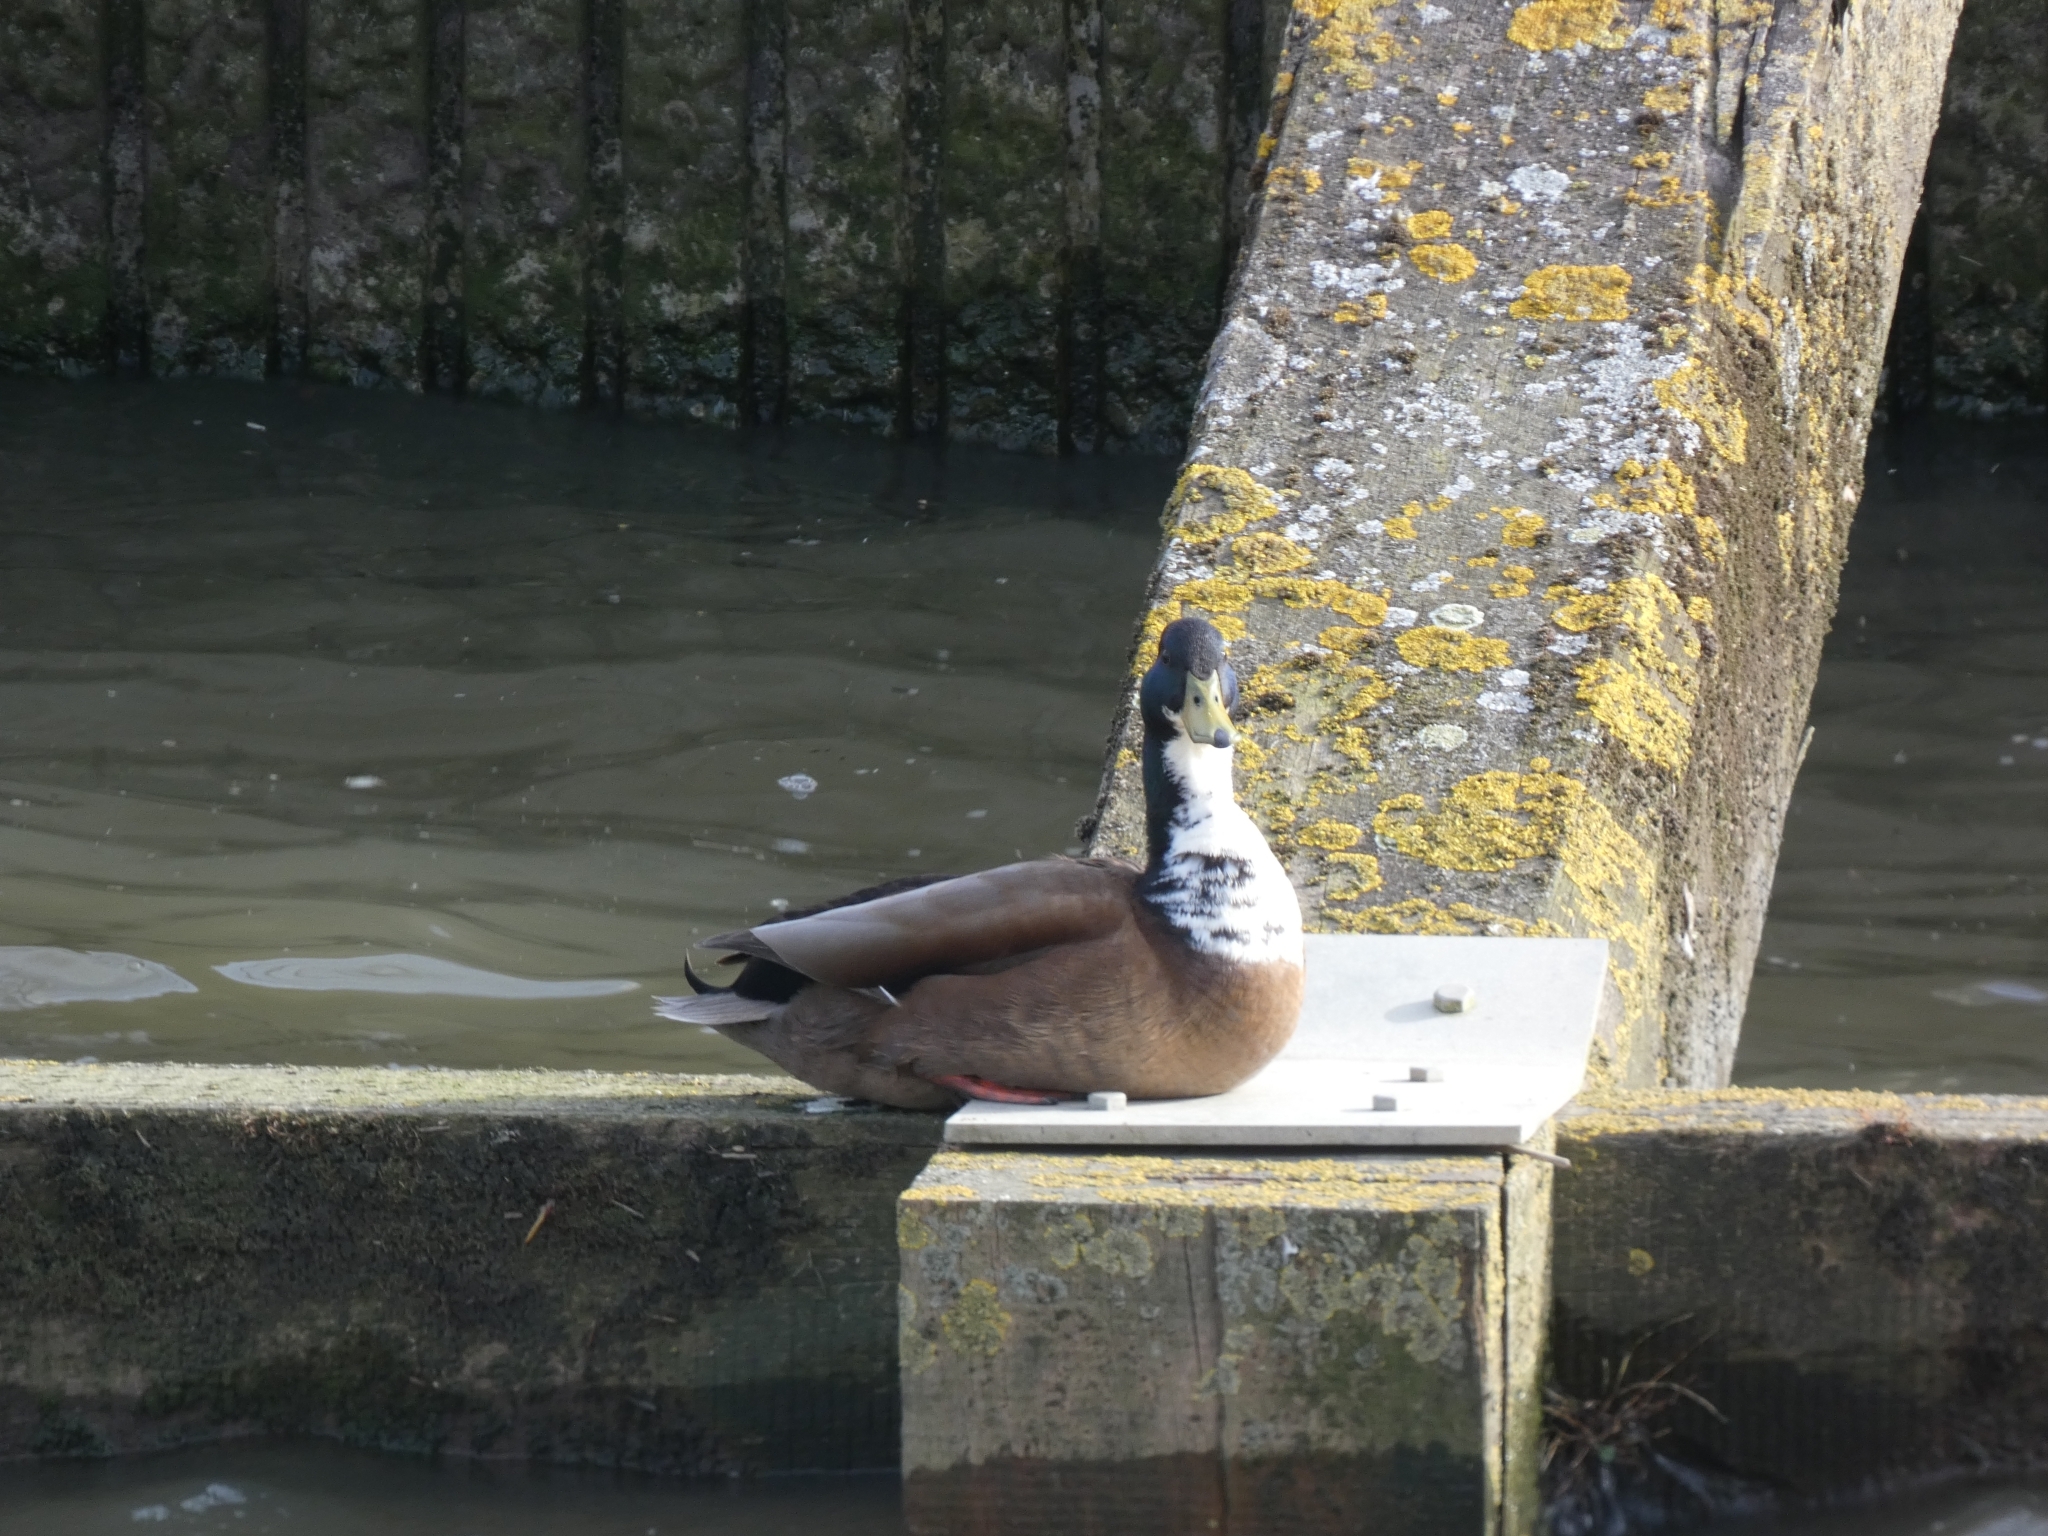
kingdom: Animalia
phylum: Chordata
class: Aves
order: Anseriformes
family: Anatidae
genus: Anas
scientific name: Anas platyrhynchos
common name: Mallard
